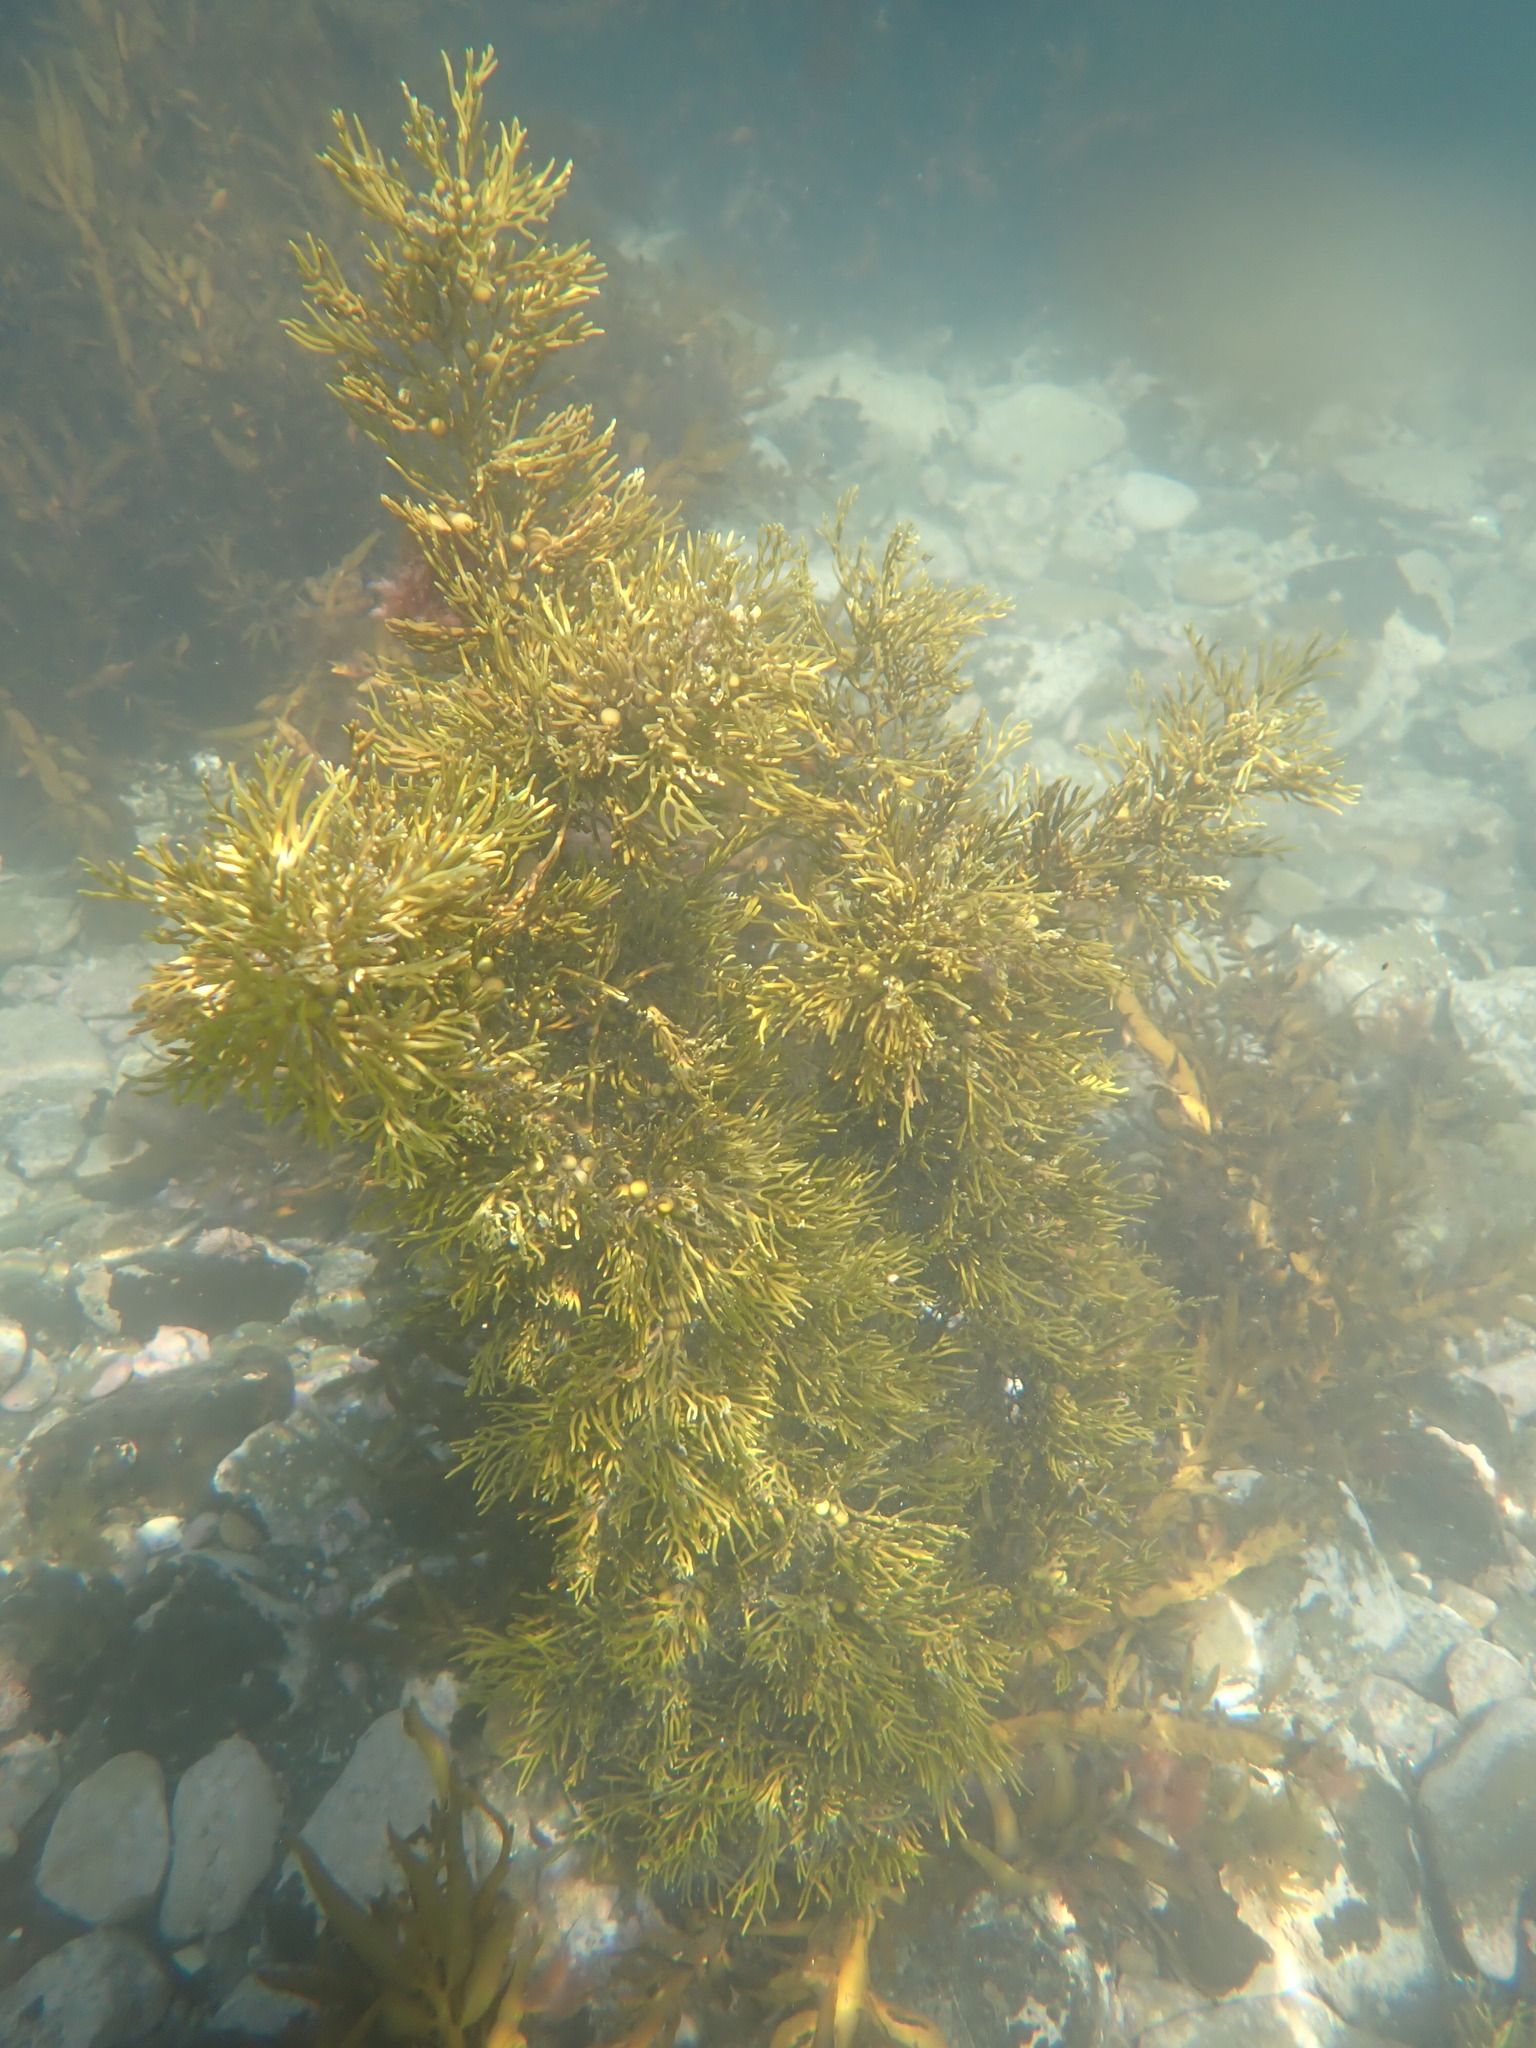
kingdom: Chromista
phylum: Ochrophyta
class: Phaeophyceae
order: Fucales
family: Sargassaceae
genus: Cystophora
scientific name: Cystophora retroflexa
